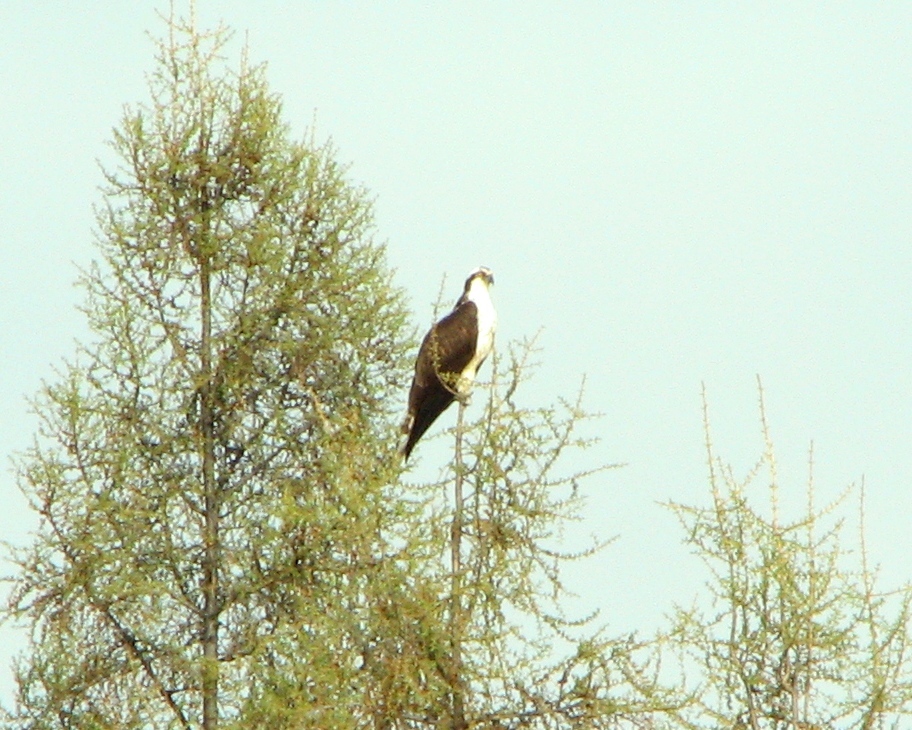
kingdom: Animalia
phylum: Chordata
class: Aves
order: Accipitriformes
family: Pandionidae
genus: Pandion
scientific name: Pandion haliaetus
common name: Osprey
